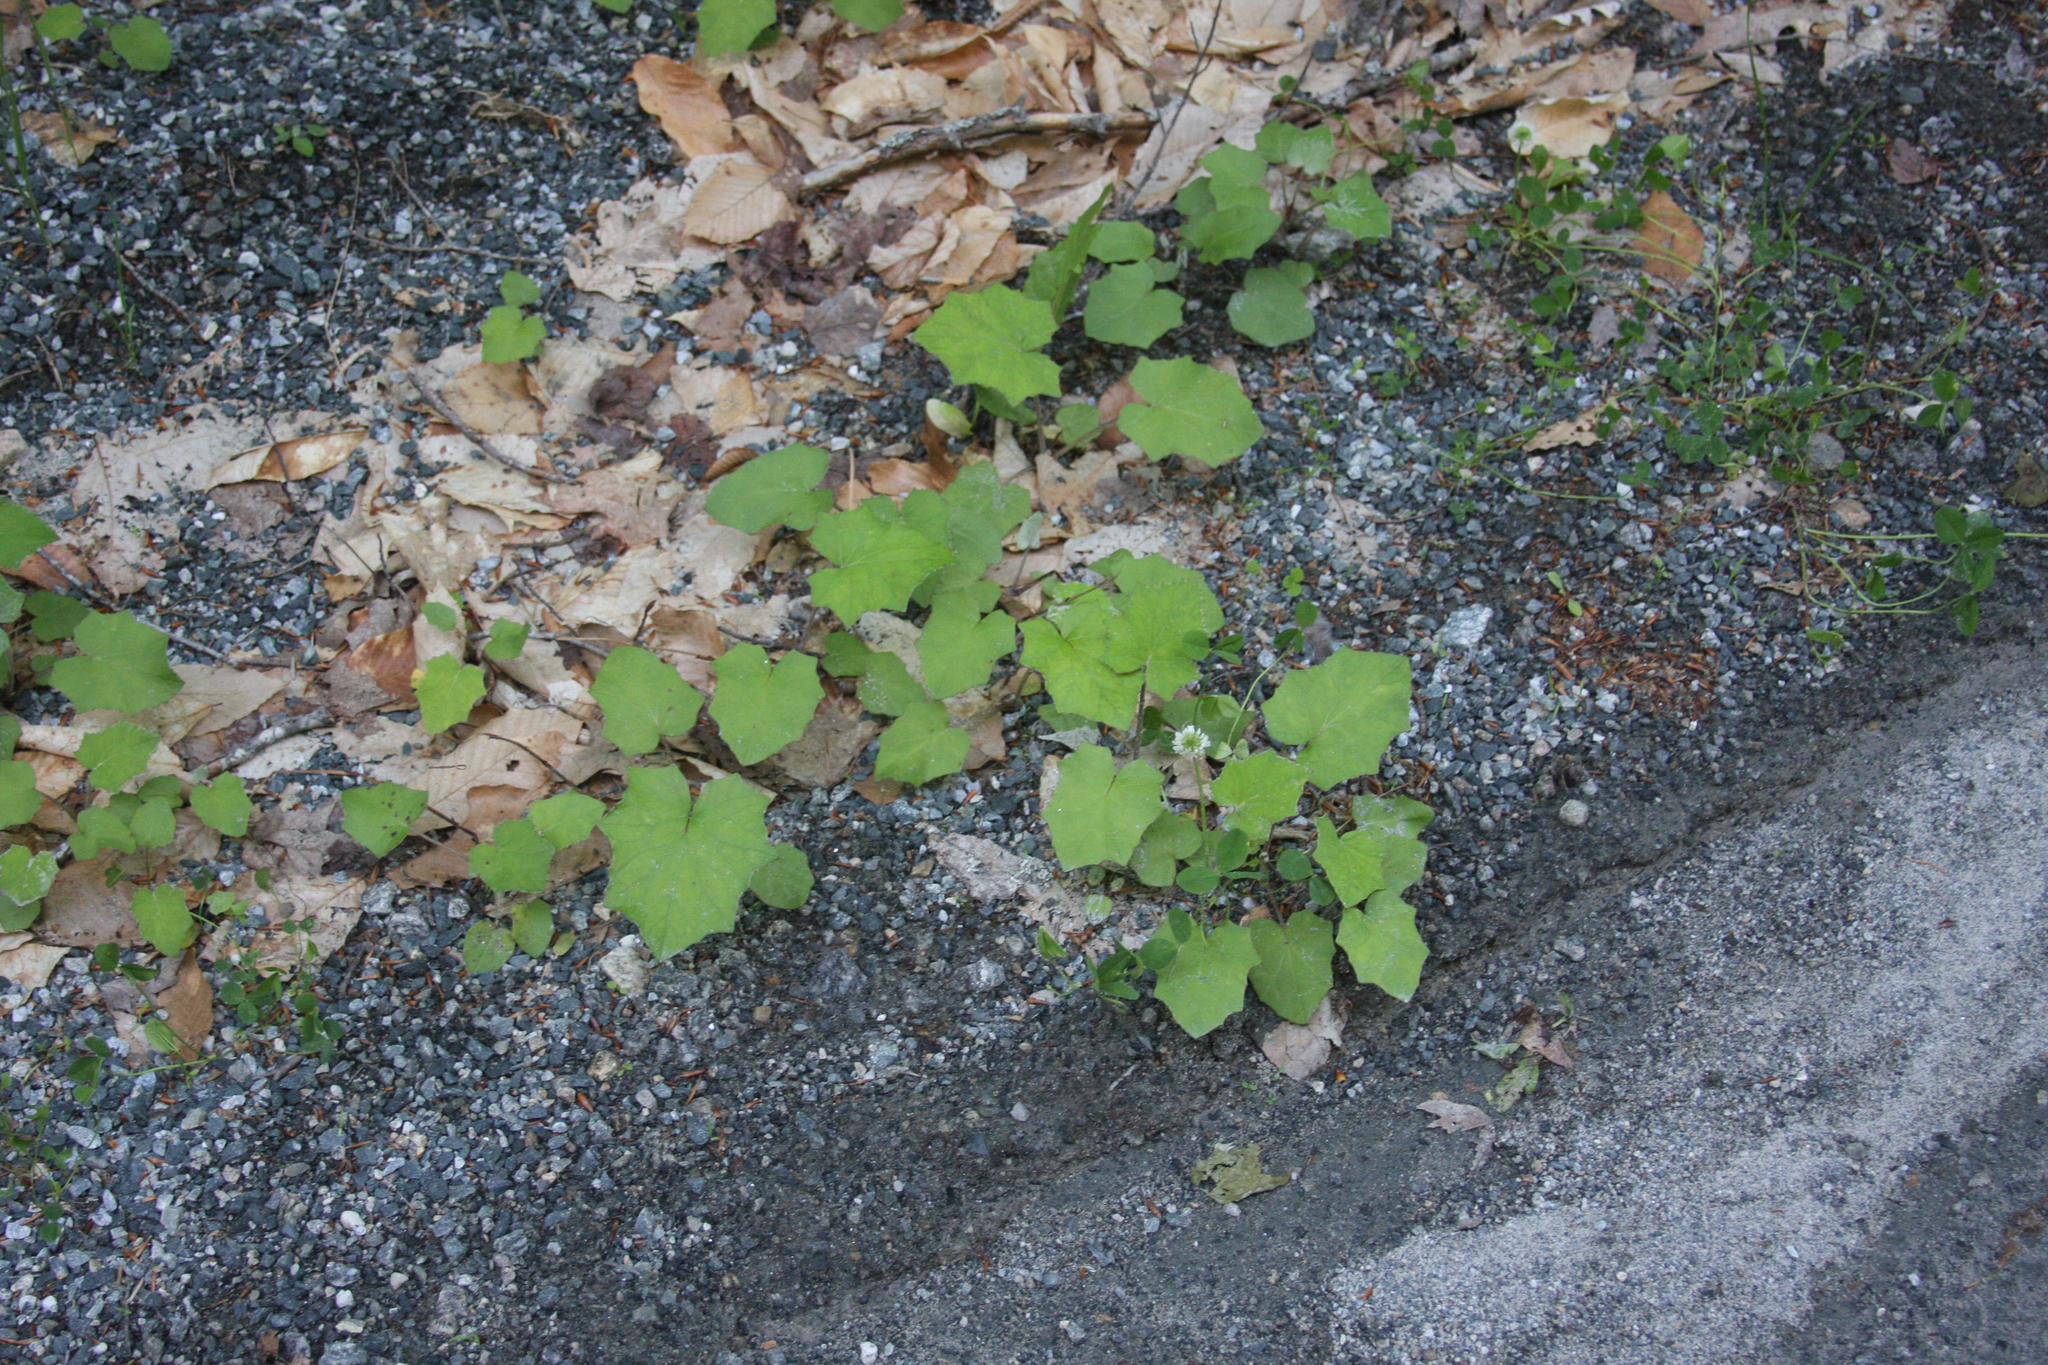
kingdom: Plantae
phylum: Tracheophyta
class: Magnoliopsida
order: Asterales
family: Asteraceae
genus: Tussilago
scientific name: Tussilago farfara
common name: Coltsfoot
